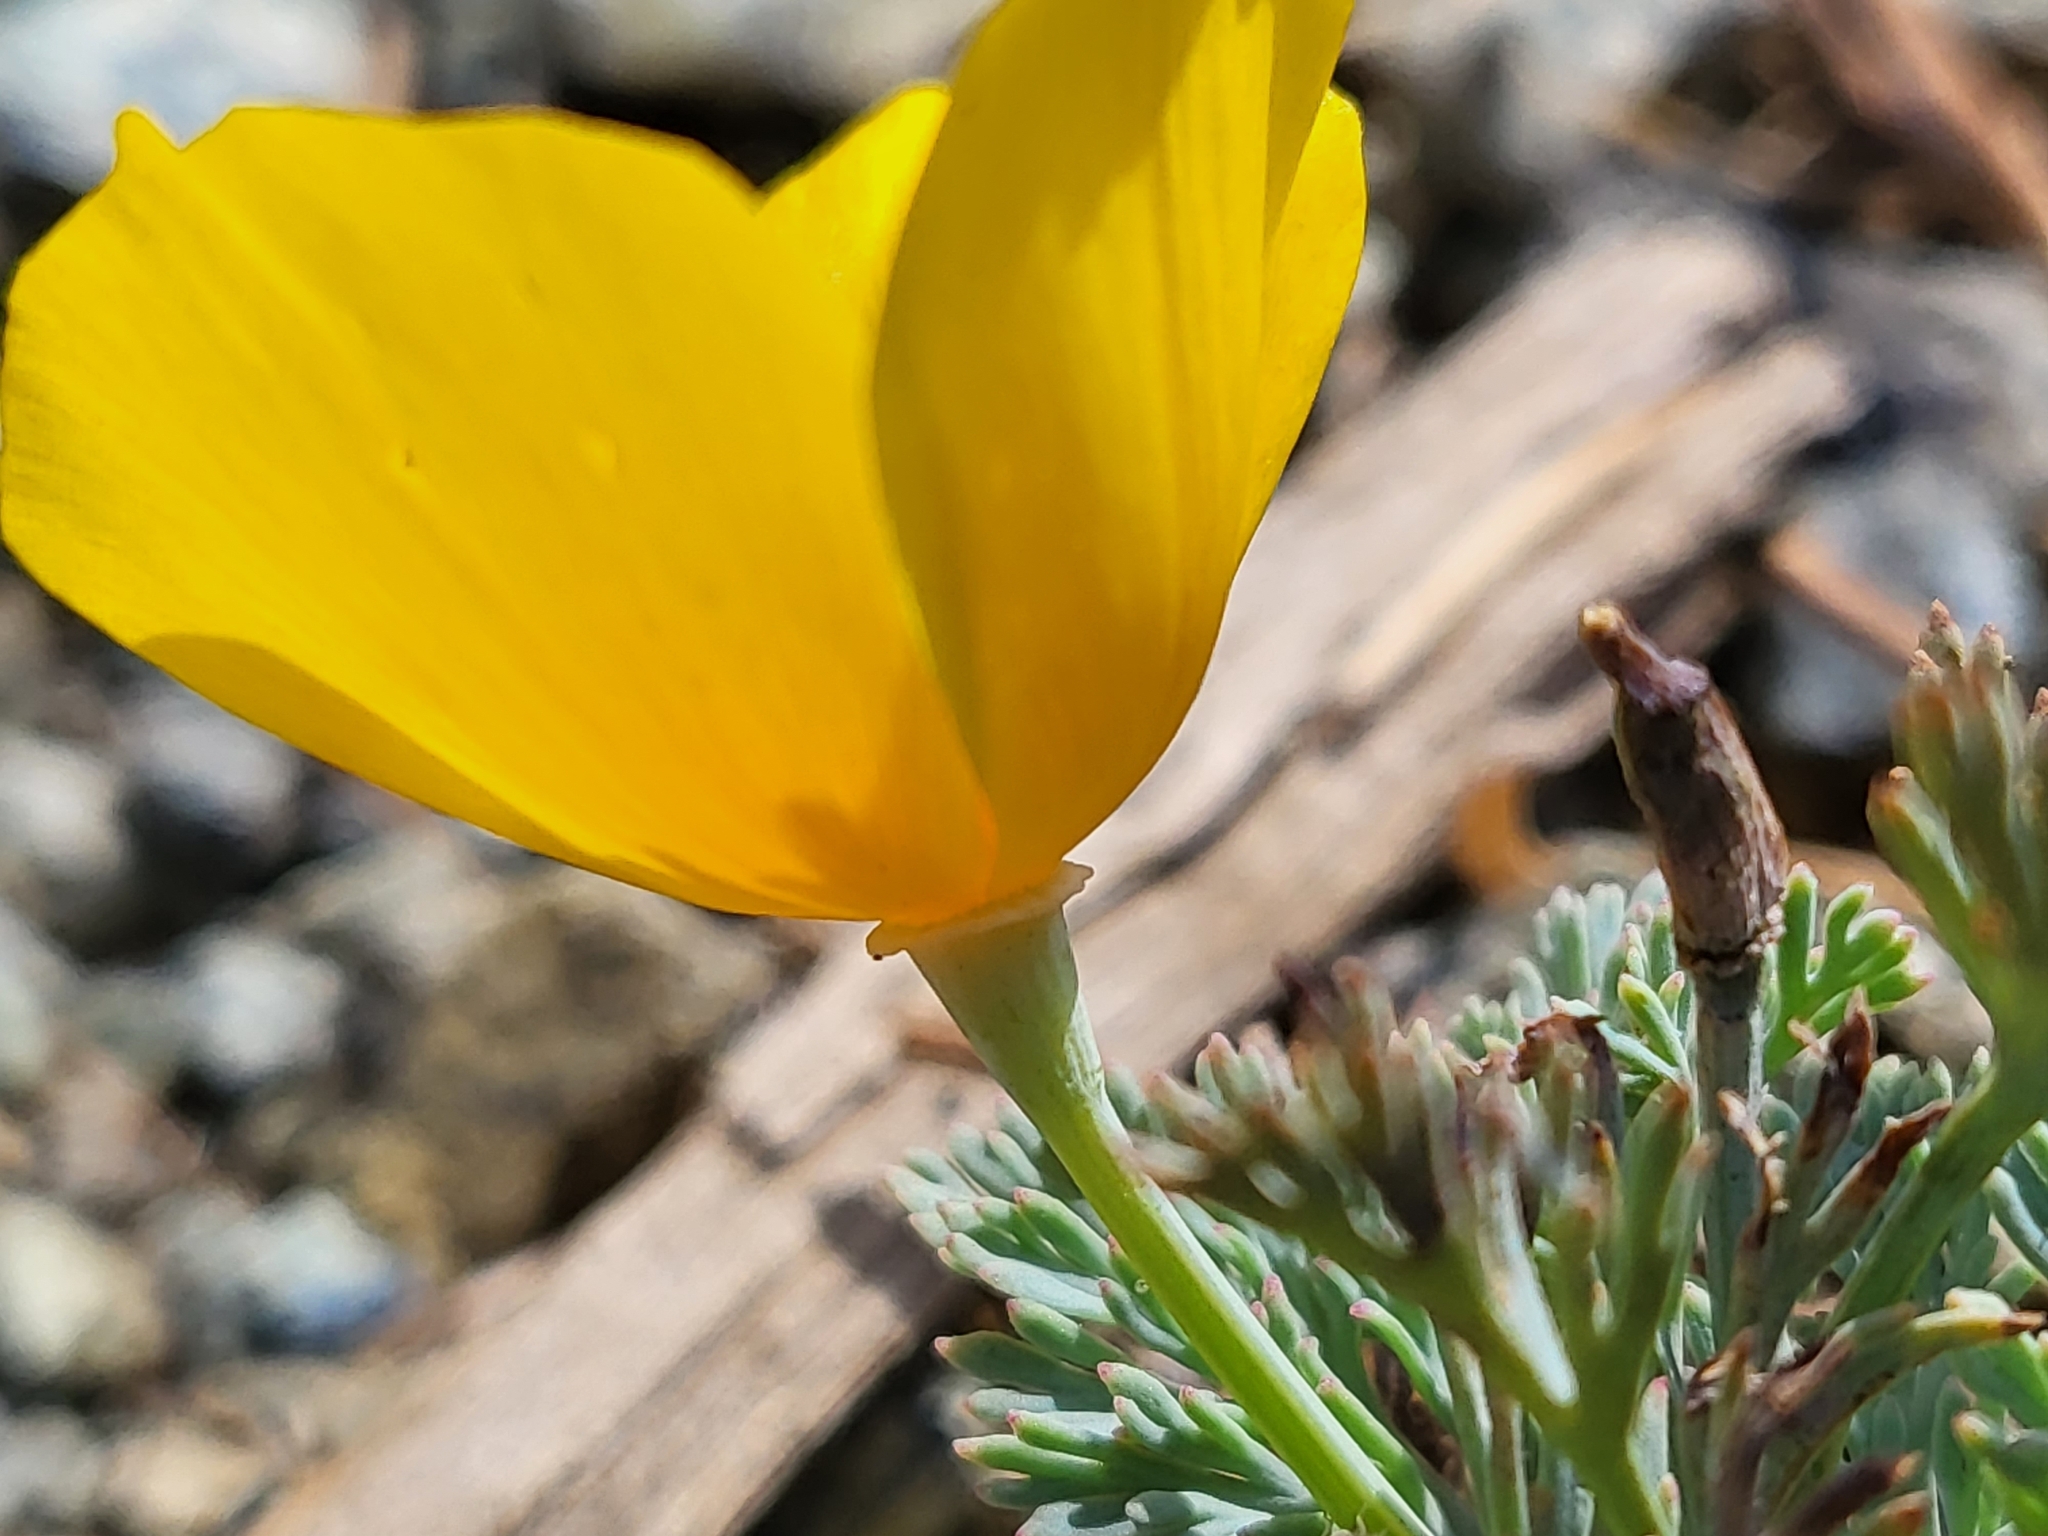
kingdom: Plantae
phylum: Tracheophyta
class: Magnoliopsida
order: Ranunculales
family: Papaveraceae
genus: Eschscholzia
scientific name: Eschscholzia californica
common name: California poppy
